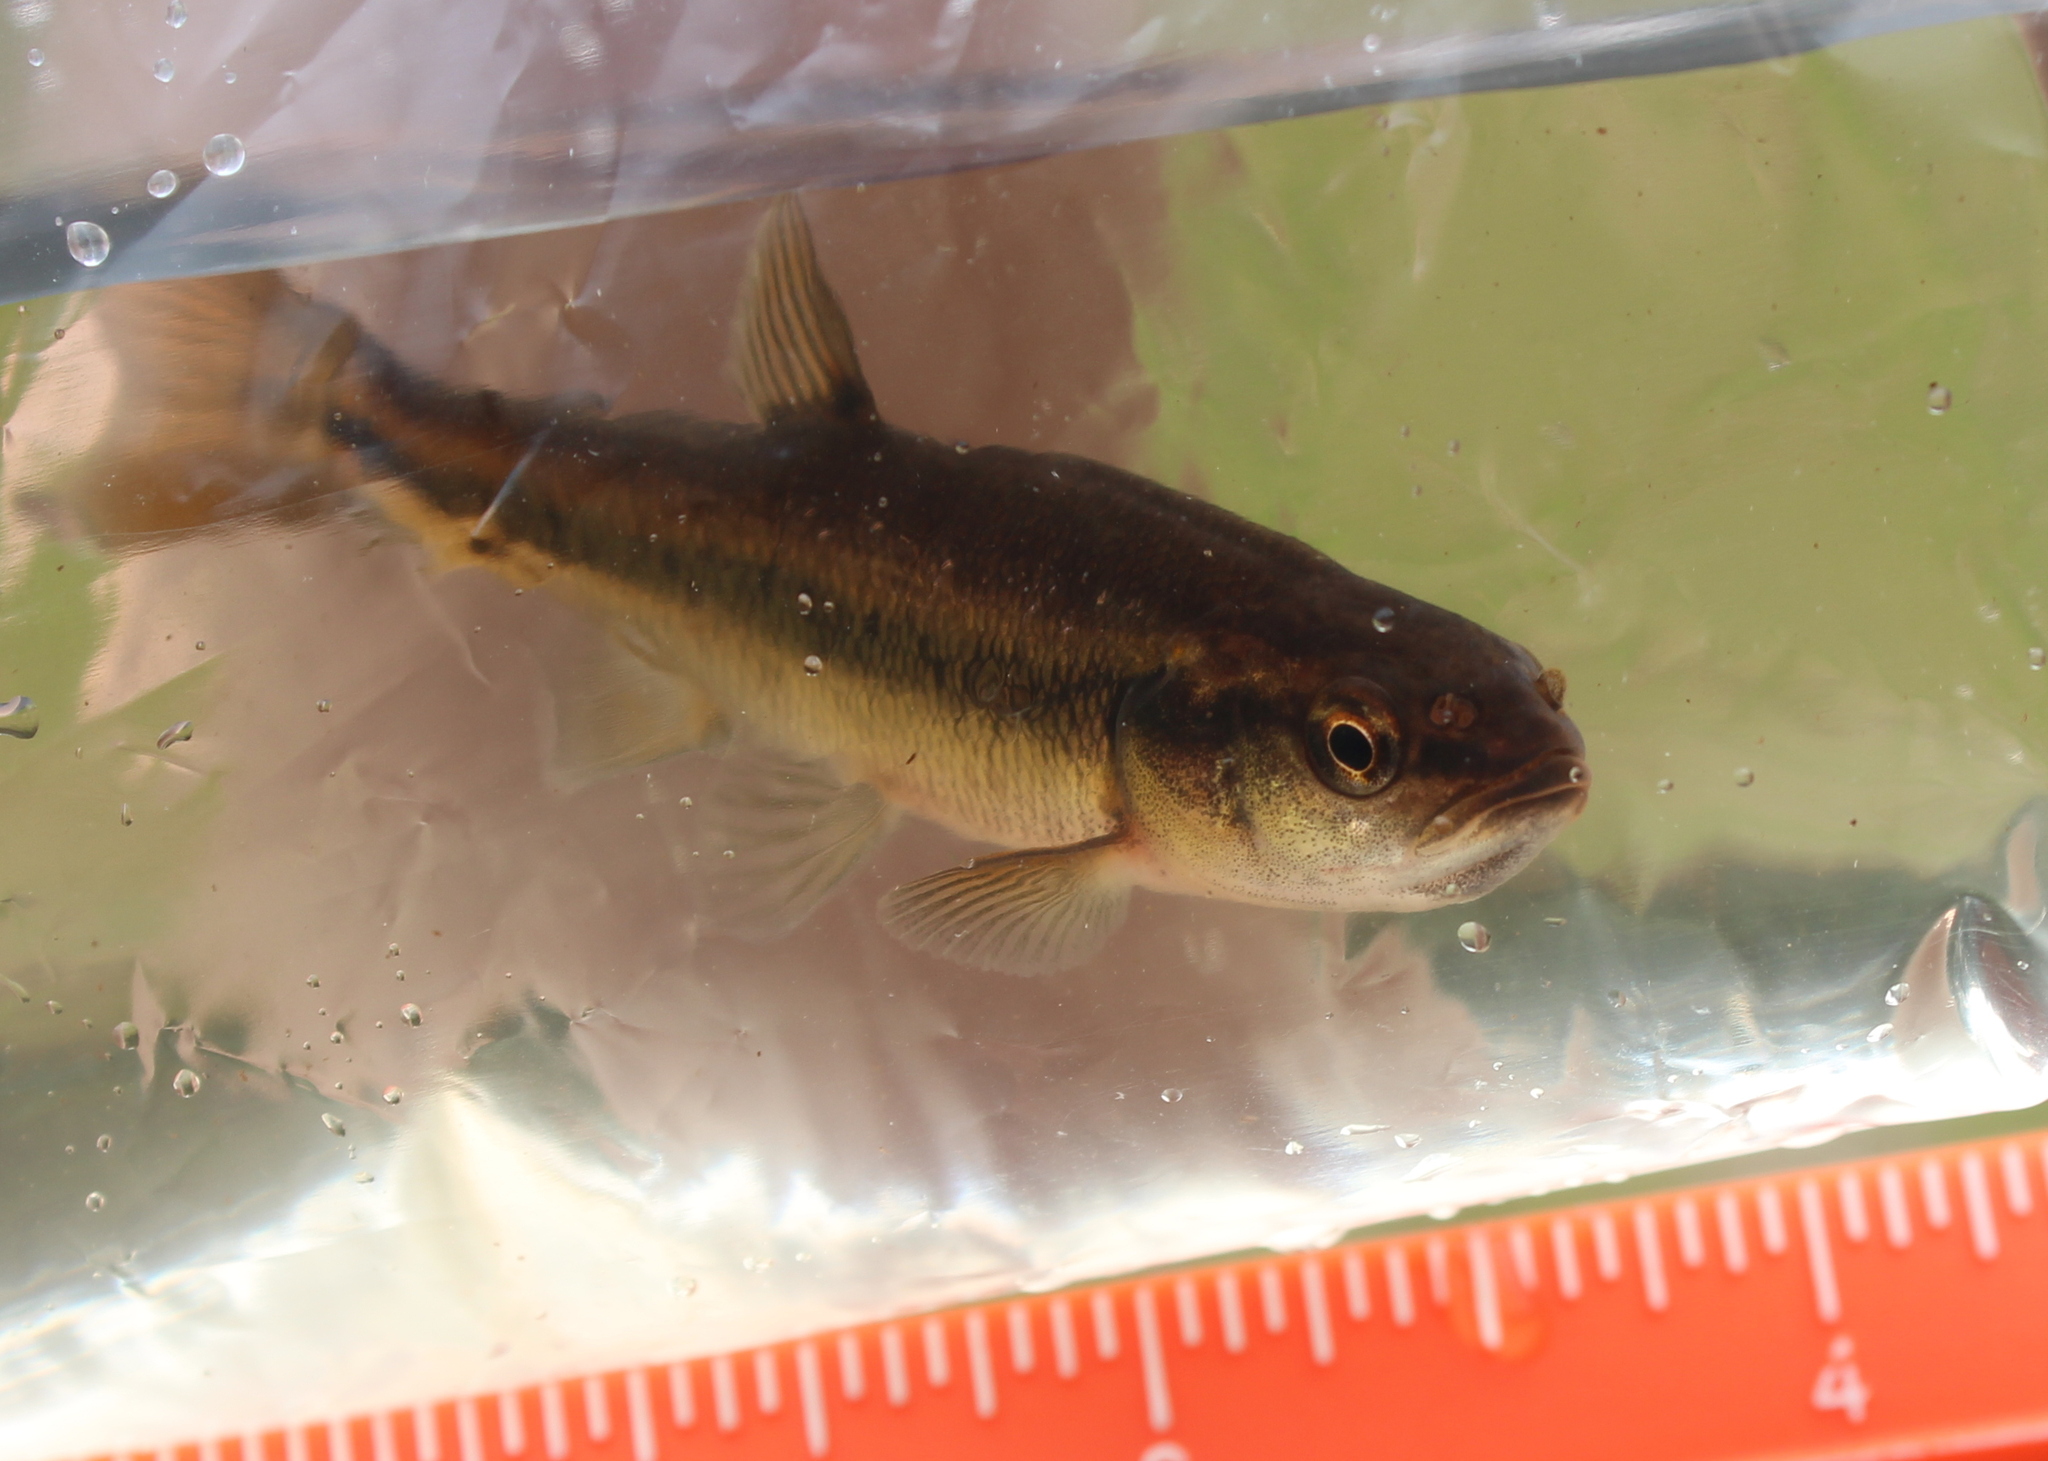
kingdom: Animalia
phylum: Chordata
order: Cypriniformes
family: Cyprinidae
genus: Semotilus
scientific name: Semotilus atromaculatus
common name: Creek chub
